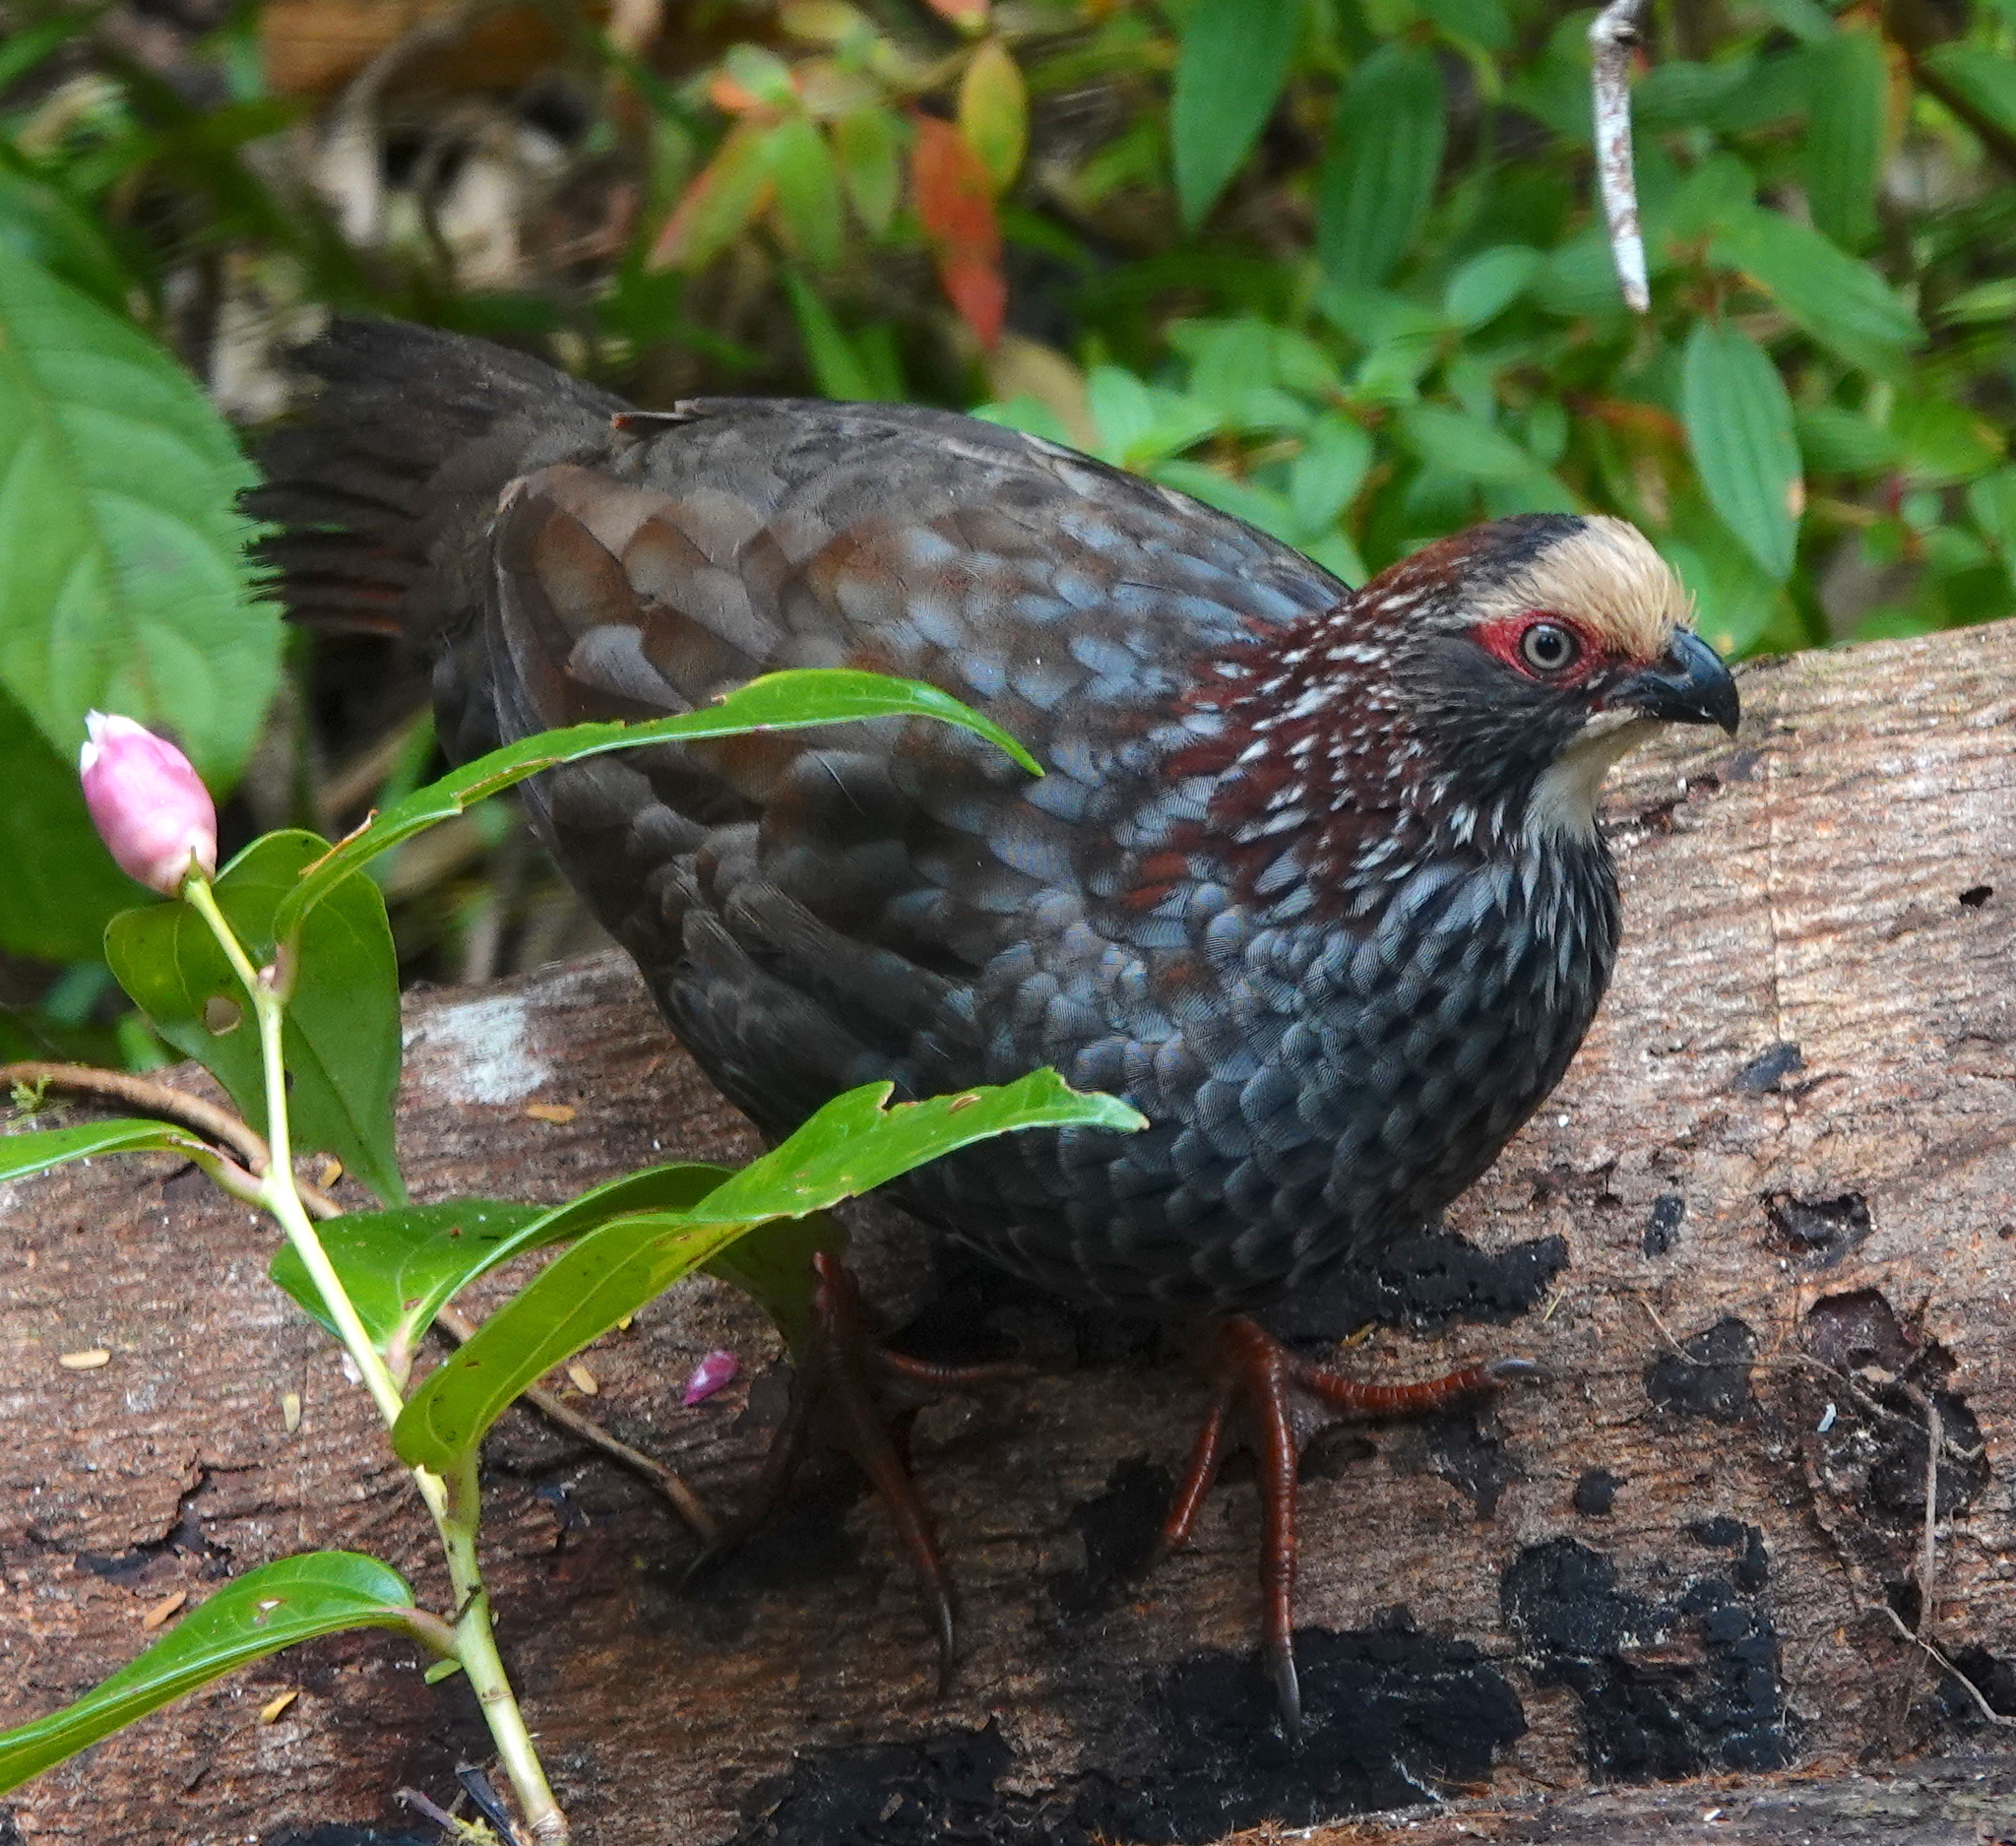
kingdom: Animalia
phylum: Chordata
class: Aves
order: Galliformes
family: Odontophoridae
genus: Dendrortyx
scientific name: Dendrortyx leucophrys
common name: Buffy-crowned wood-partridge
